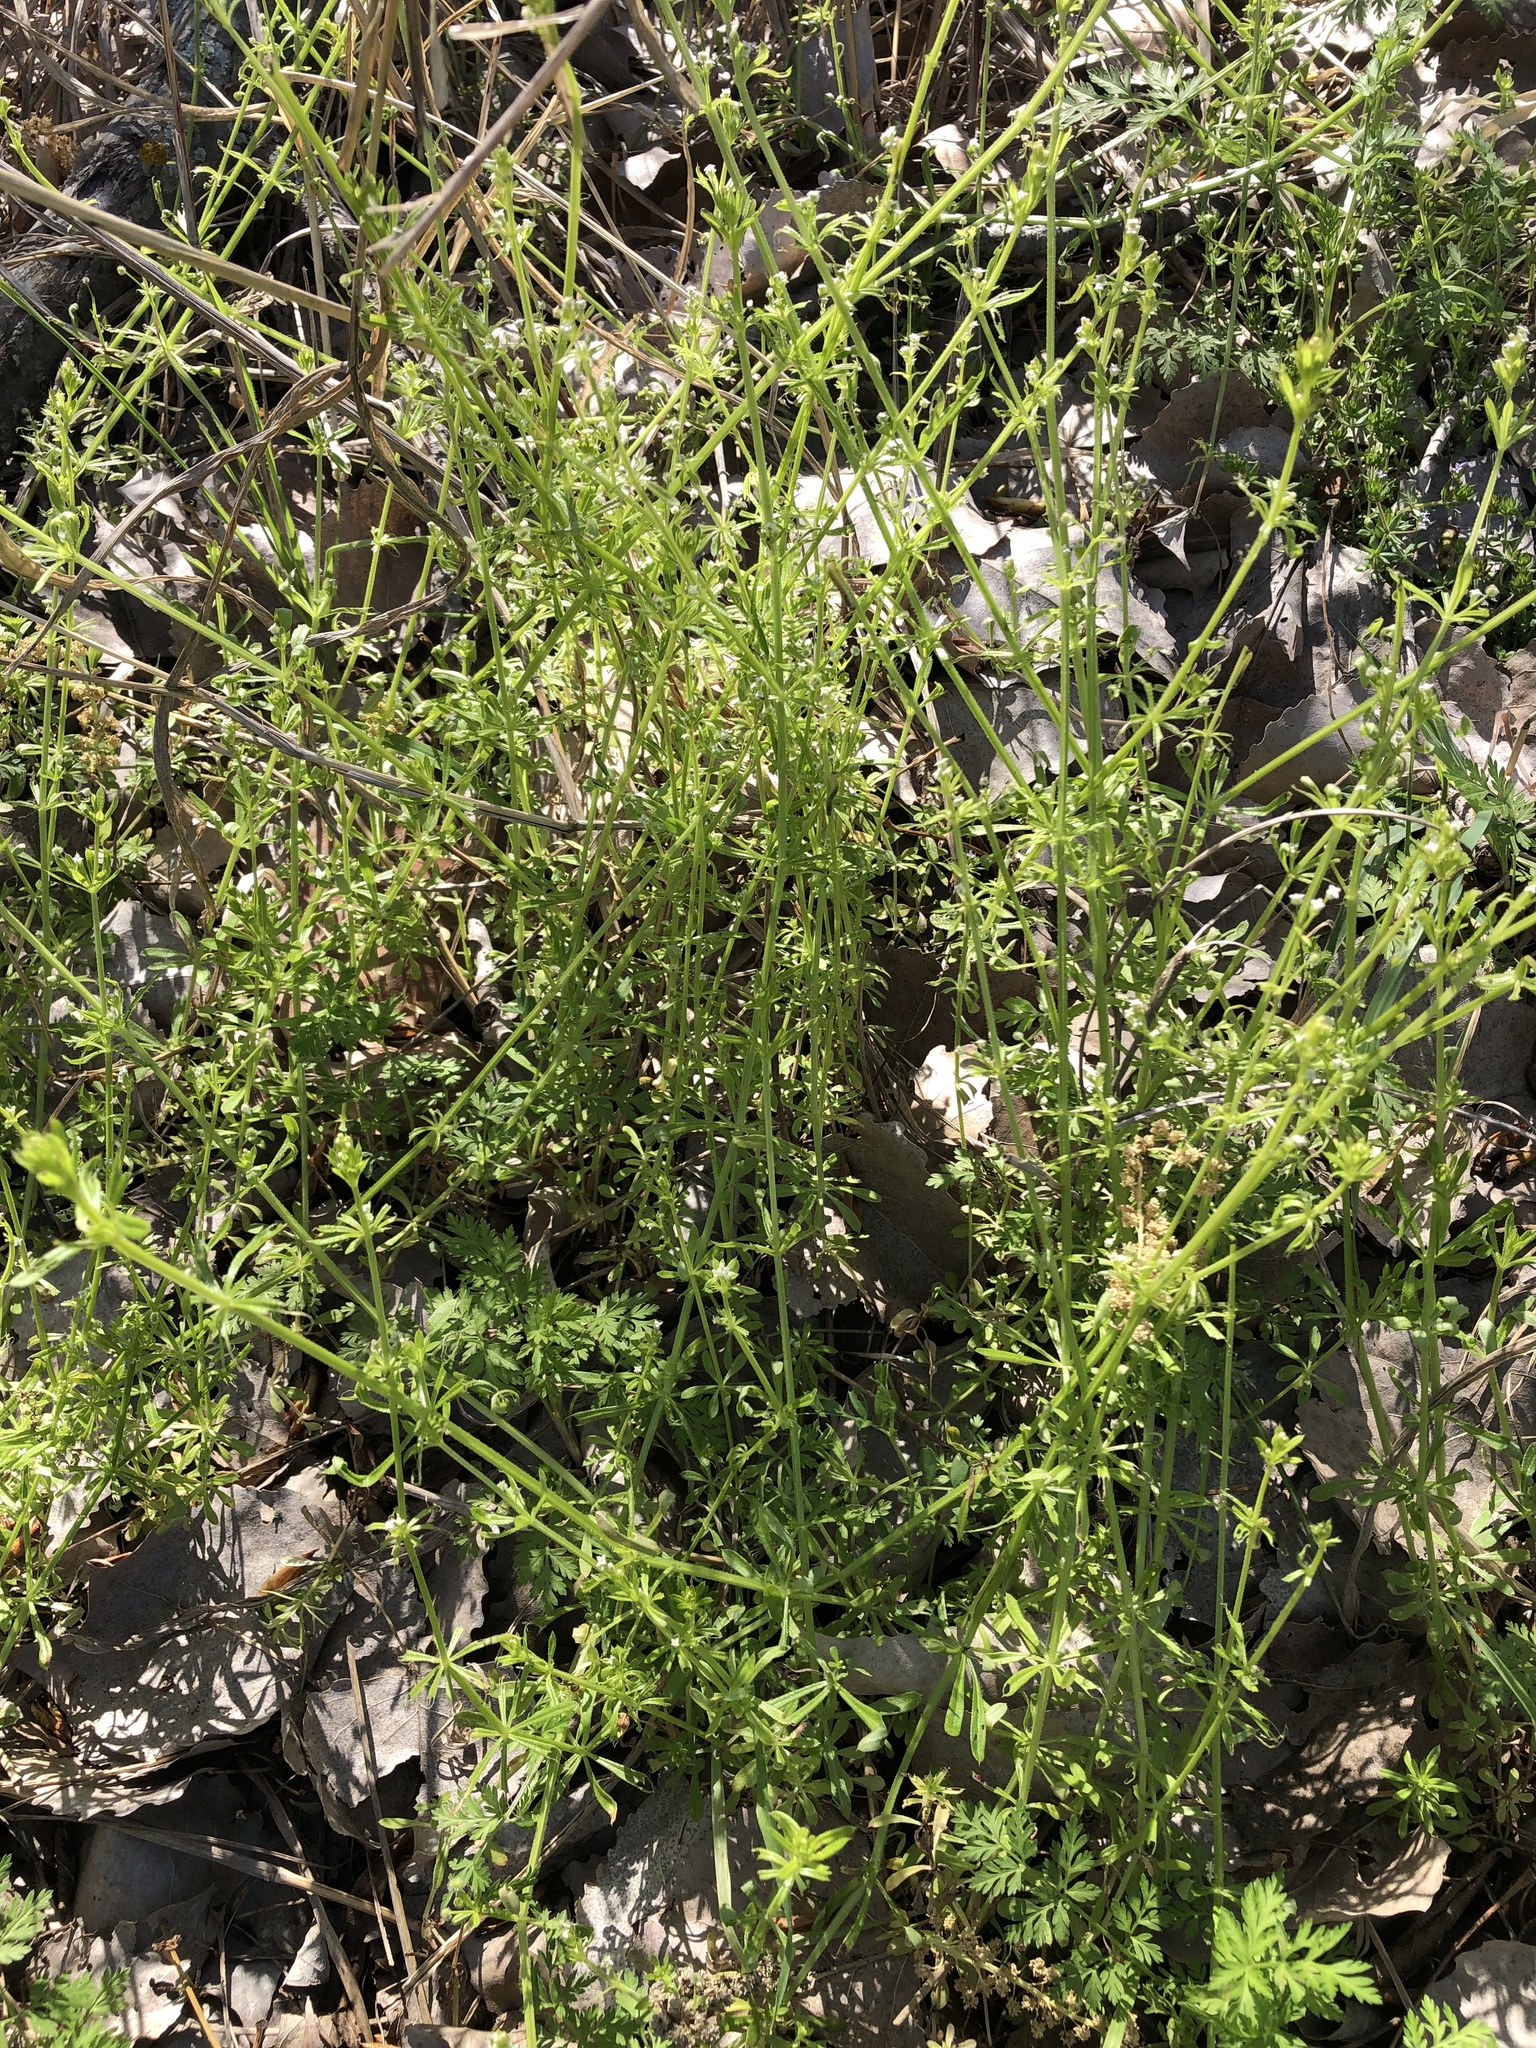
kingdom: Plantae
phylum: Tracheophyta
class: Magnoliopsida
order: Gentianales
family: Rubiaceae
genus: Galium
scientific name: Galium aparine
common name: Cleavers
